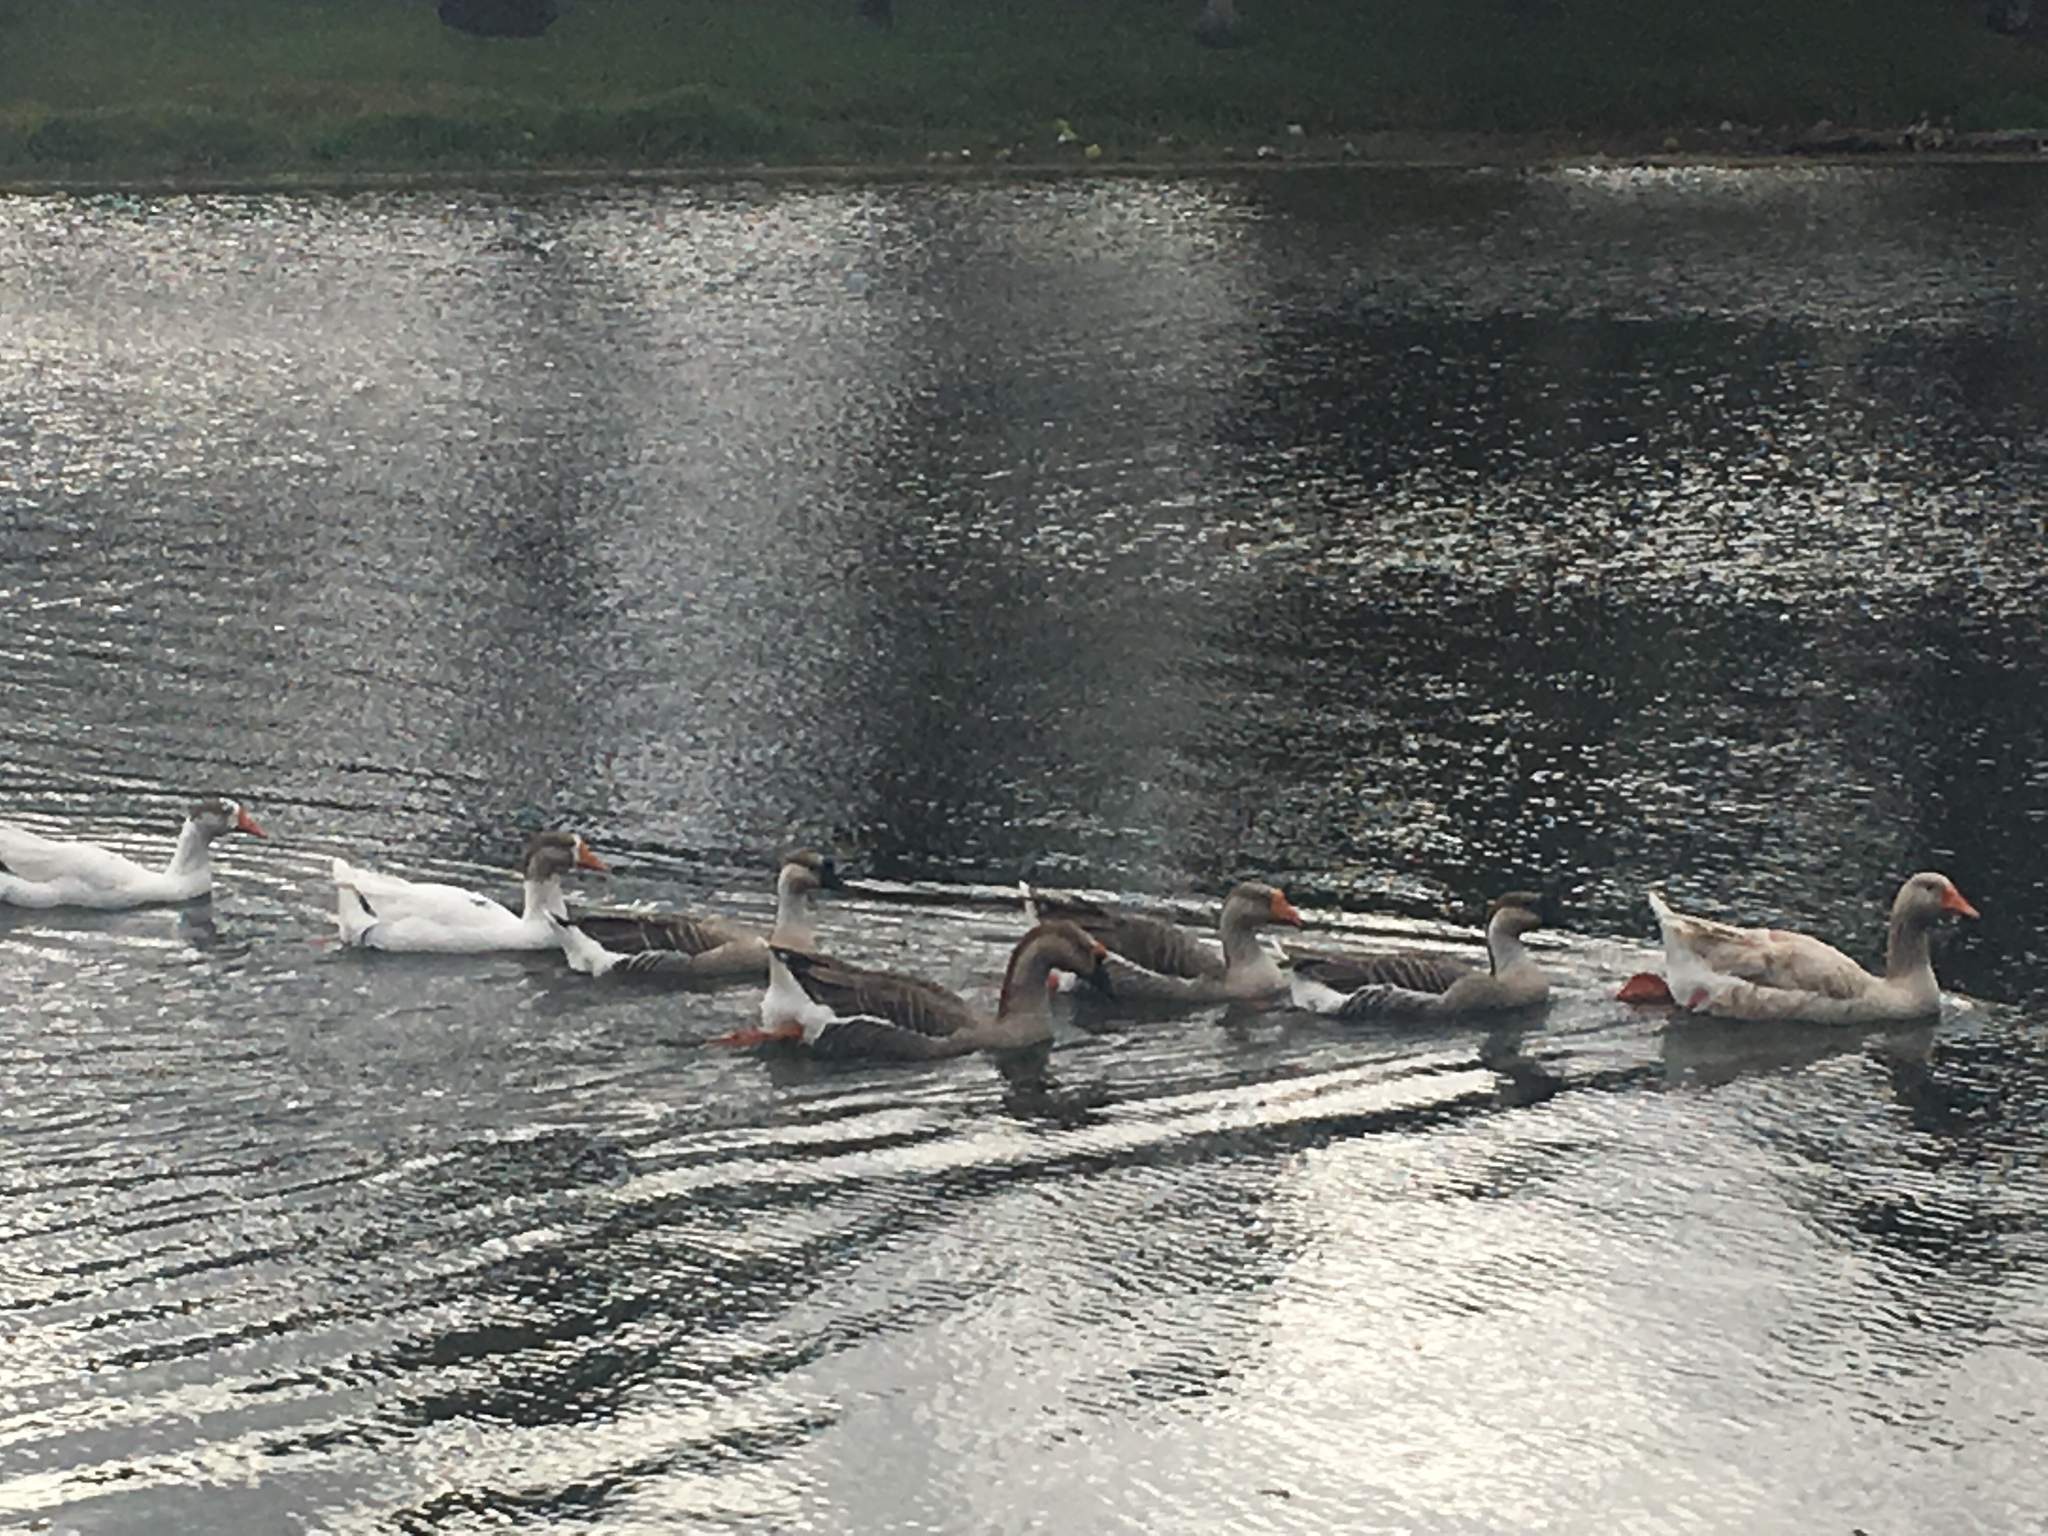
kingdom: Animalia
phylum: Chordata
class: Aves
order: Anseriformes
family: Anatidae
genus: Anser
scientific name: Anser
